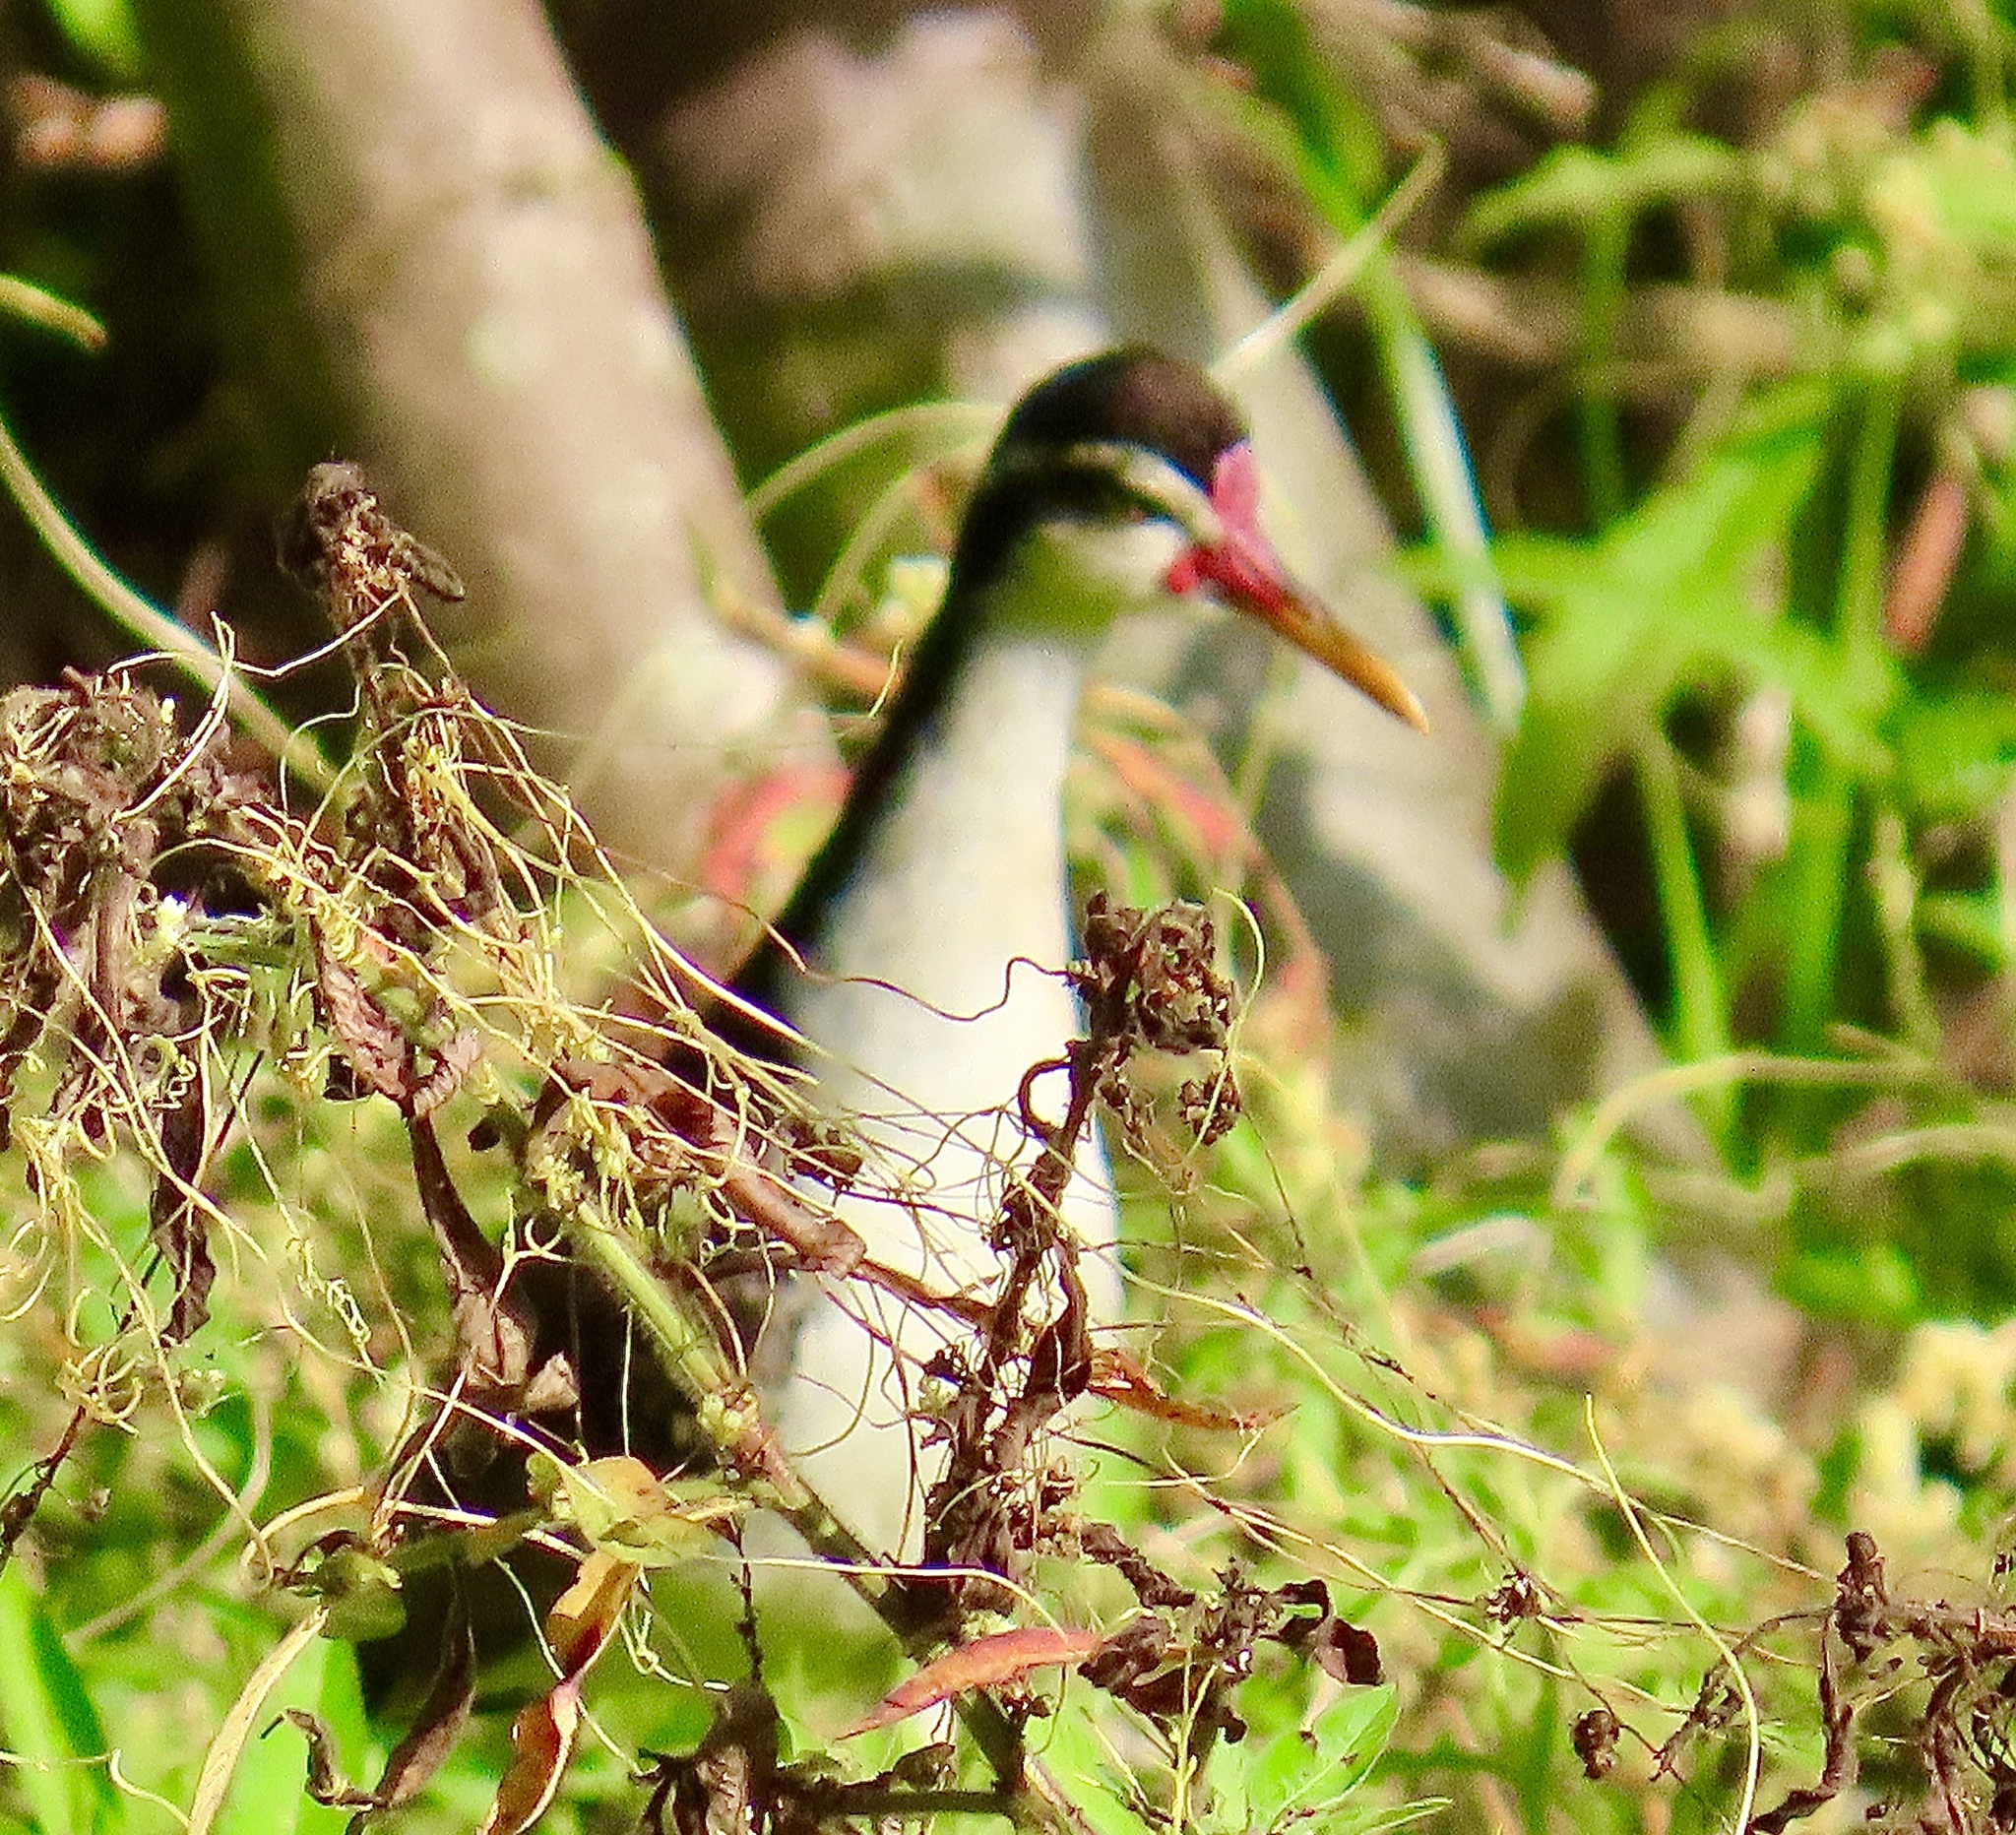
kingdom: Animalia
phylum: Chordata
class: Aves
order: Charadriiformes
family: Jacanidae
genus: Jacana
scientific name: Jacana jacana
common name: Wattled jacana
